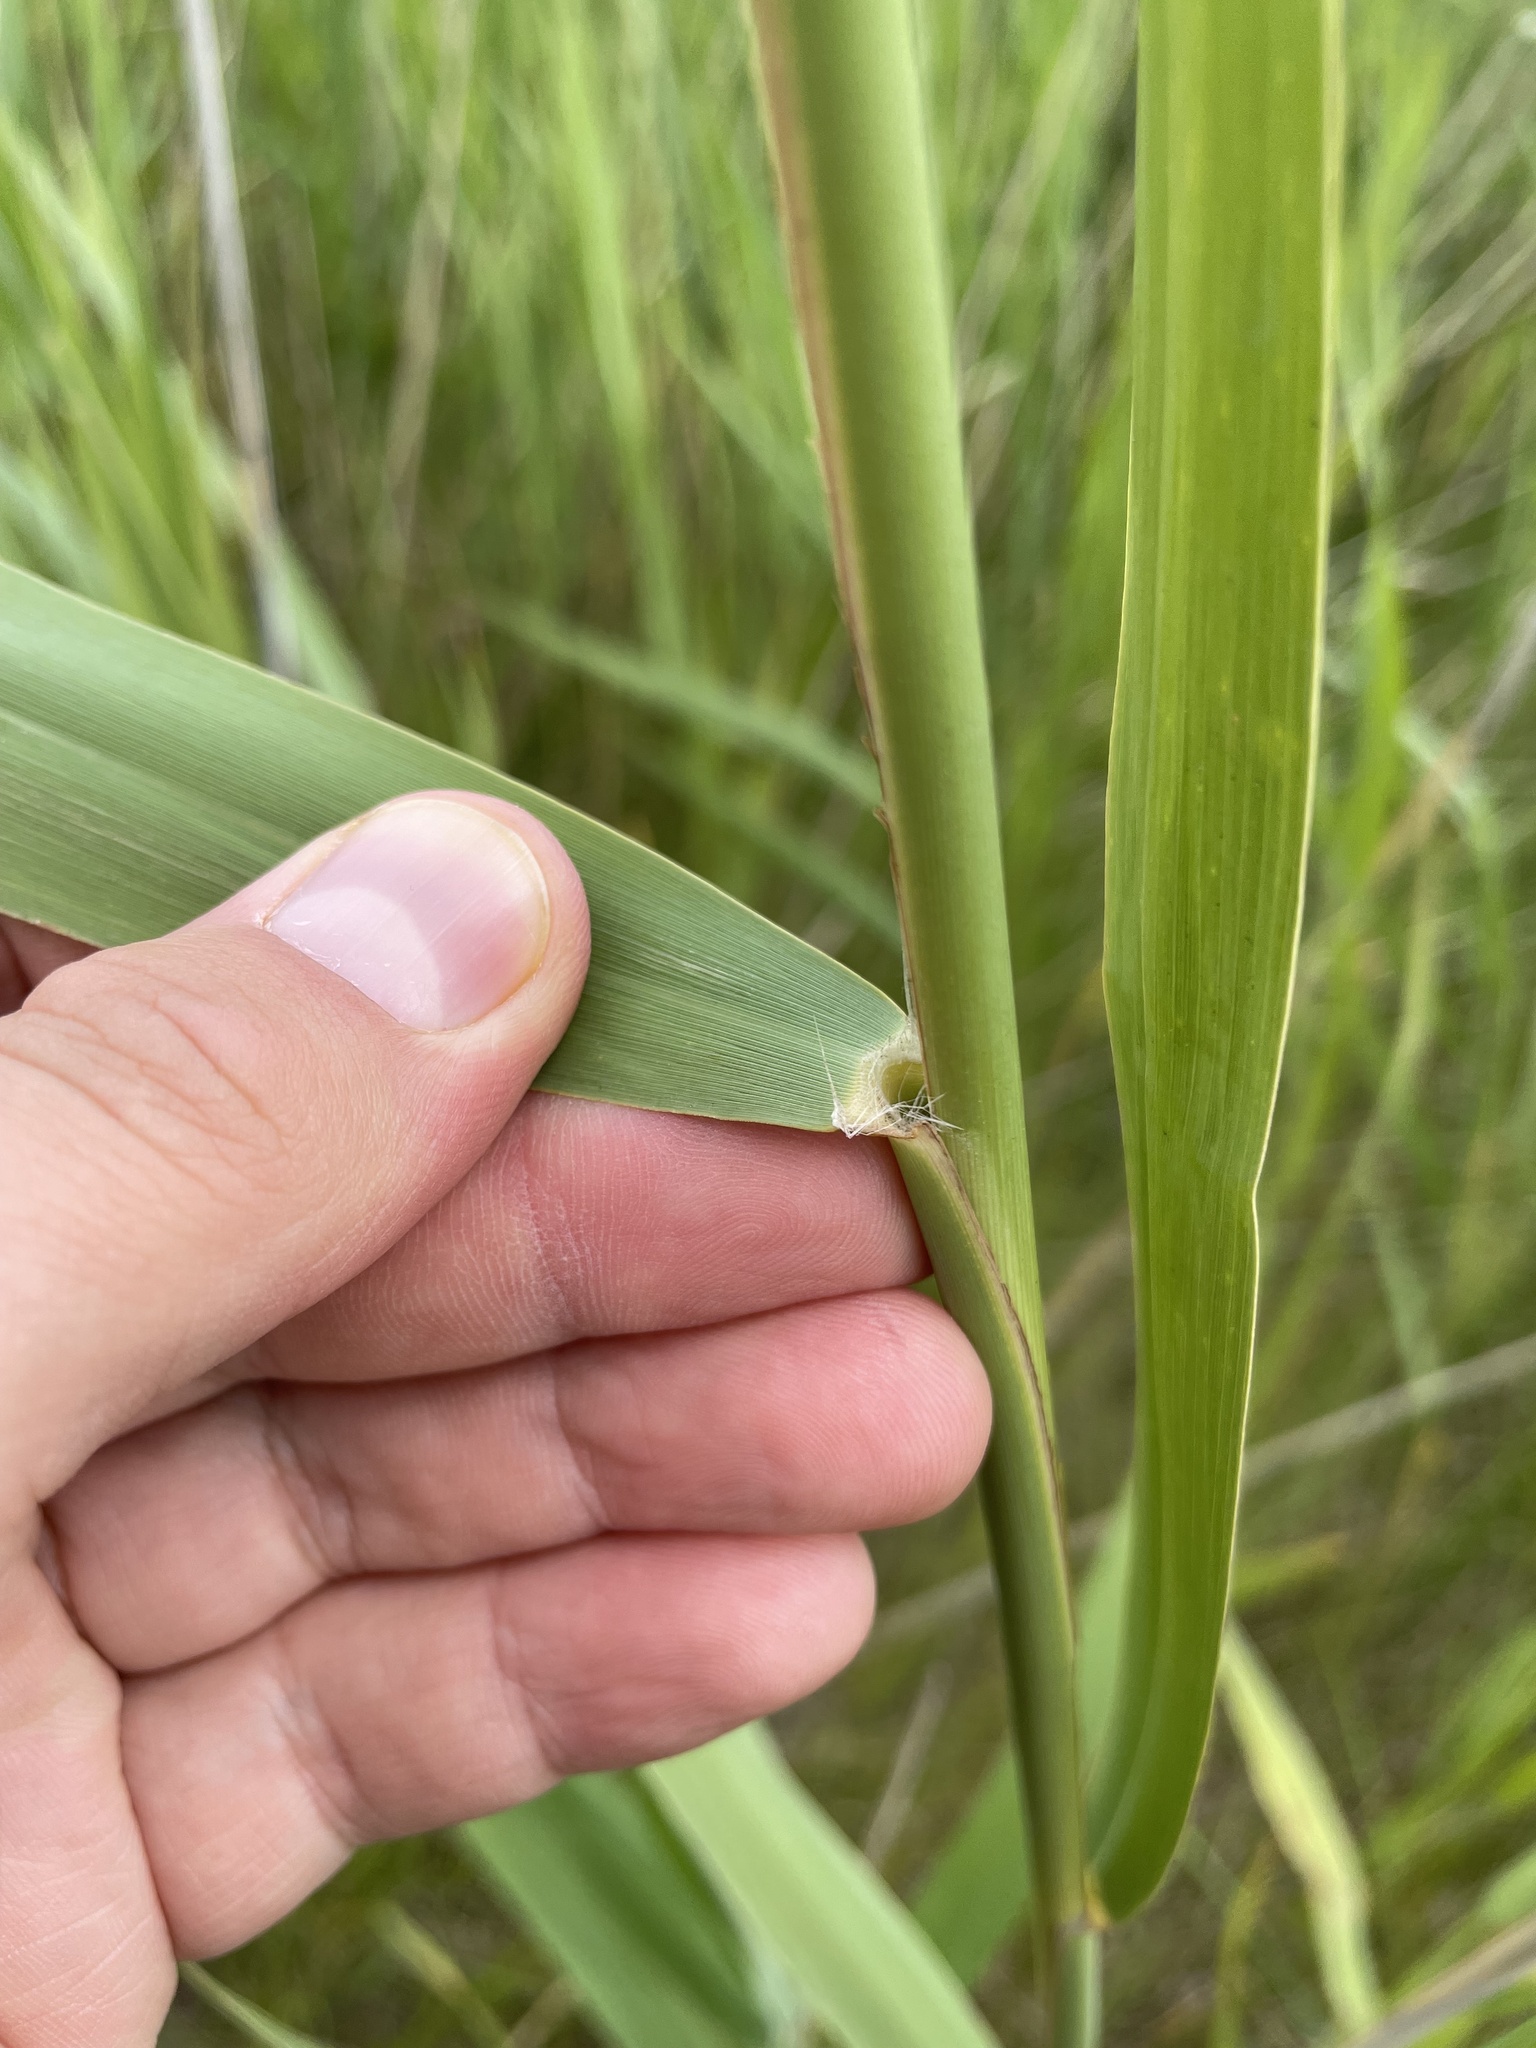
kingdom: Plantae
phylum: Tracheophyta
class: Liliopsida
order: Poales
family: Poaceae
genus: Phragmites
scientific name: Phragmites australis
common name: Common reed
